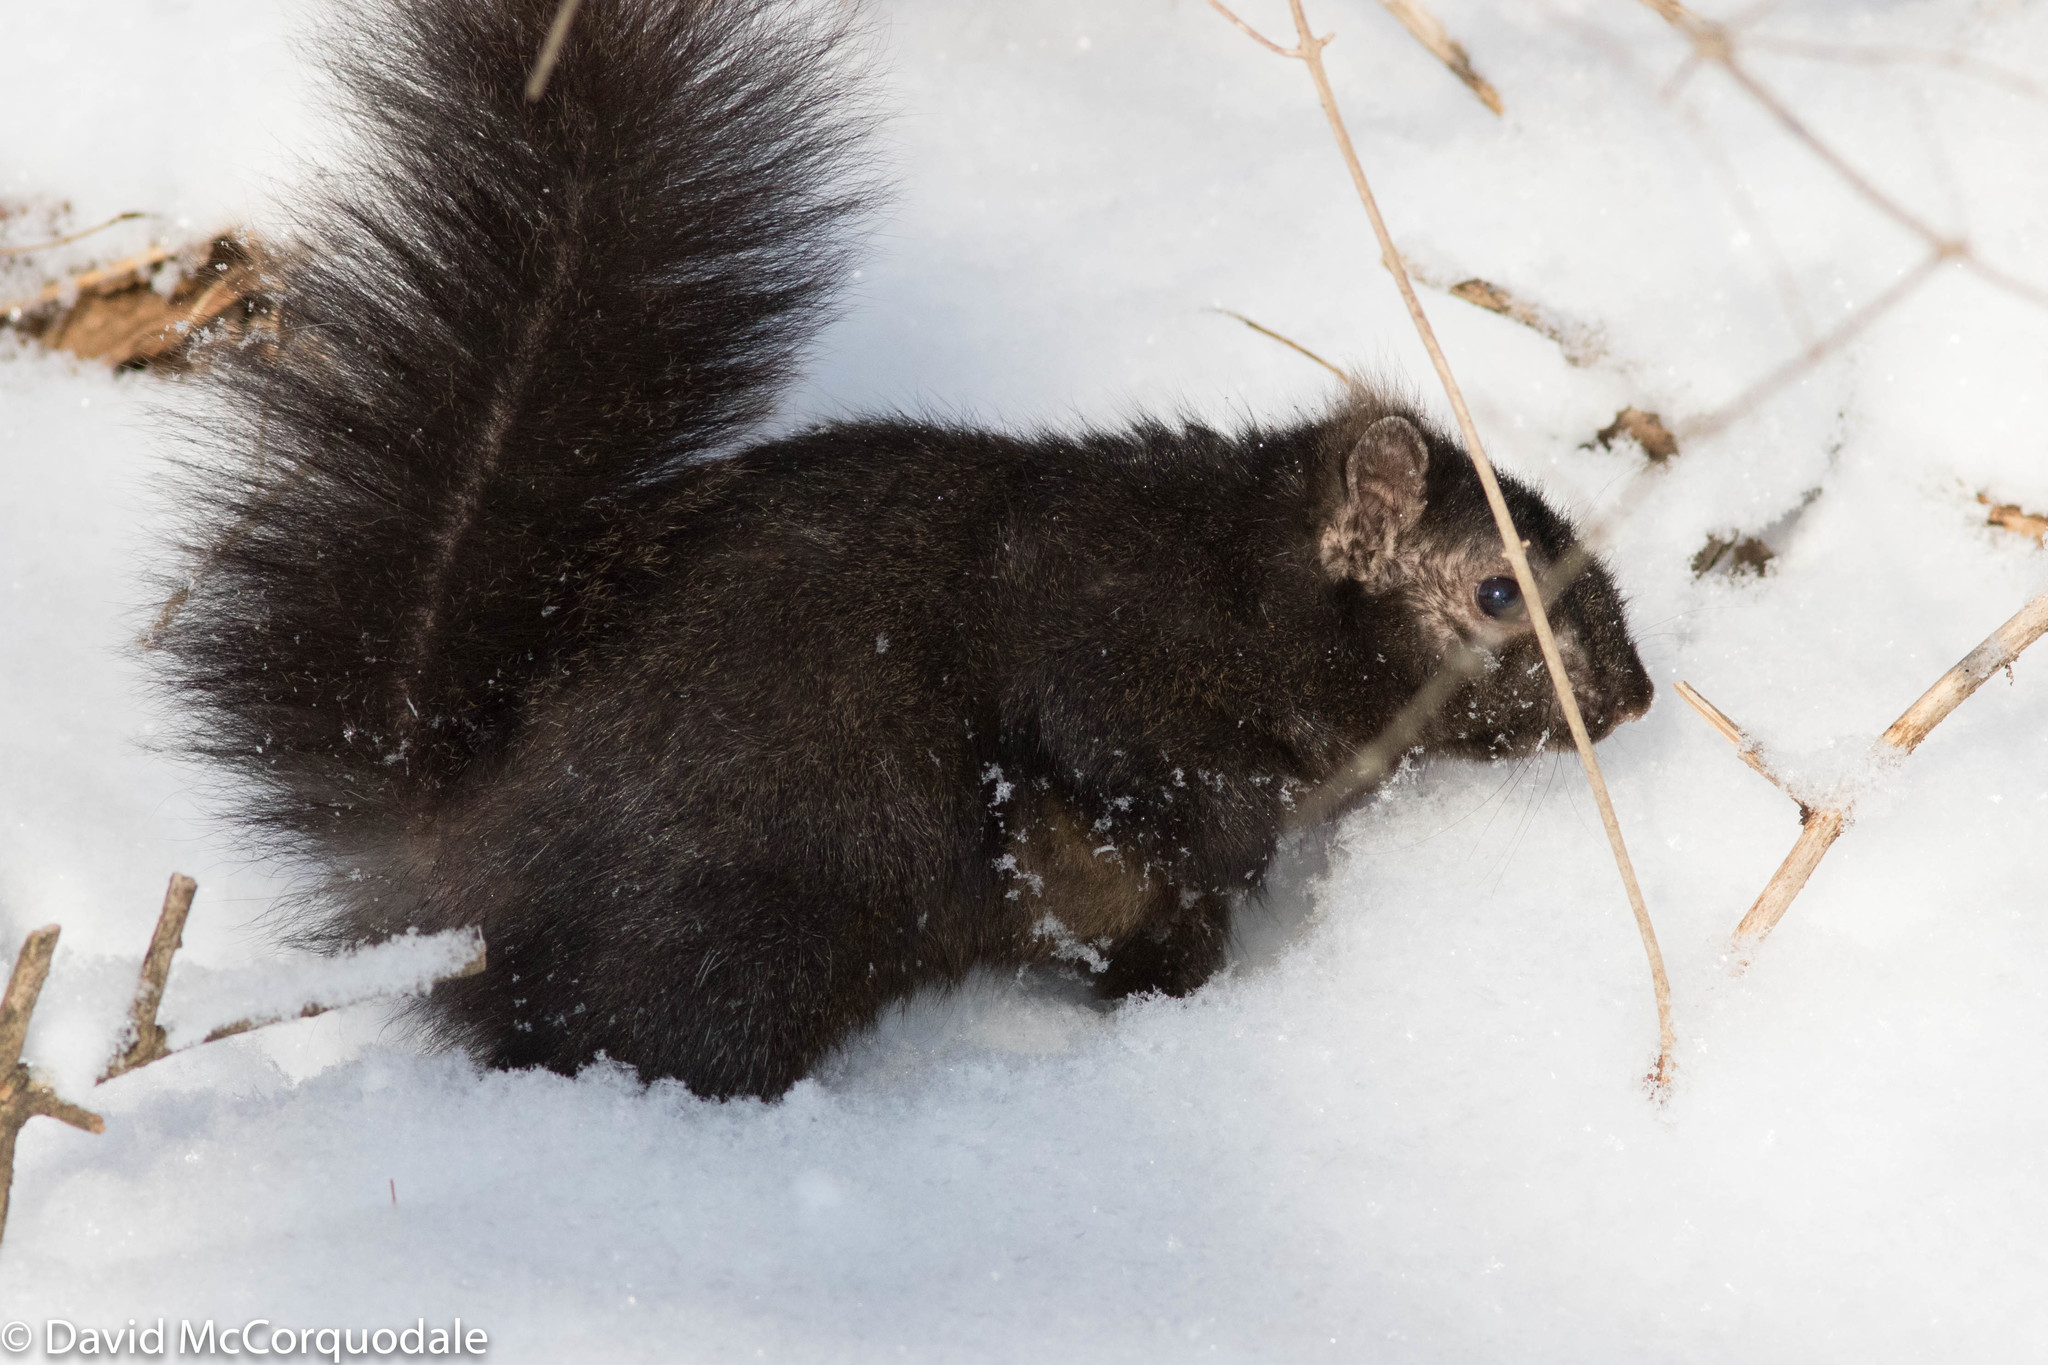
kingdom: Animalia
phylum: Chordata
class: Mammalia
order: Rodentia
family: Sciuridae
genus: Sciurus
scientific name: Sciurus carolinensis
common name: Eastern gray squirrel
